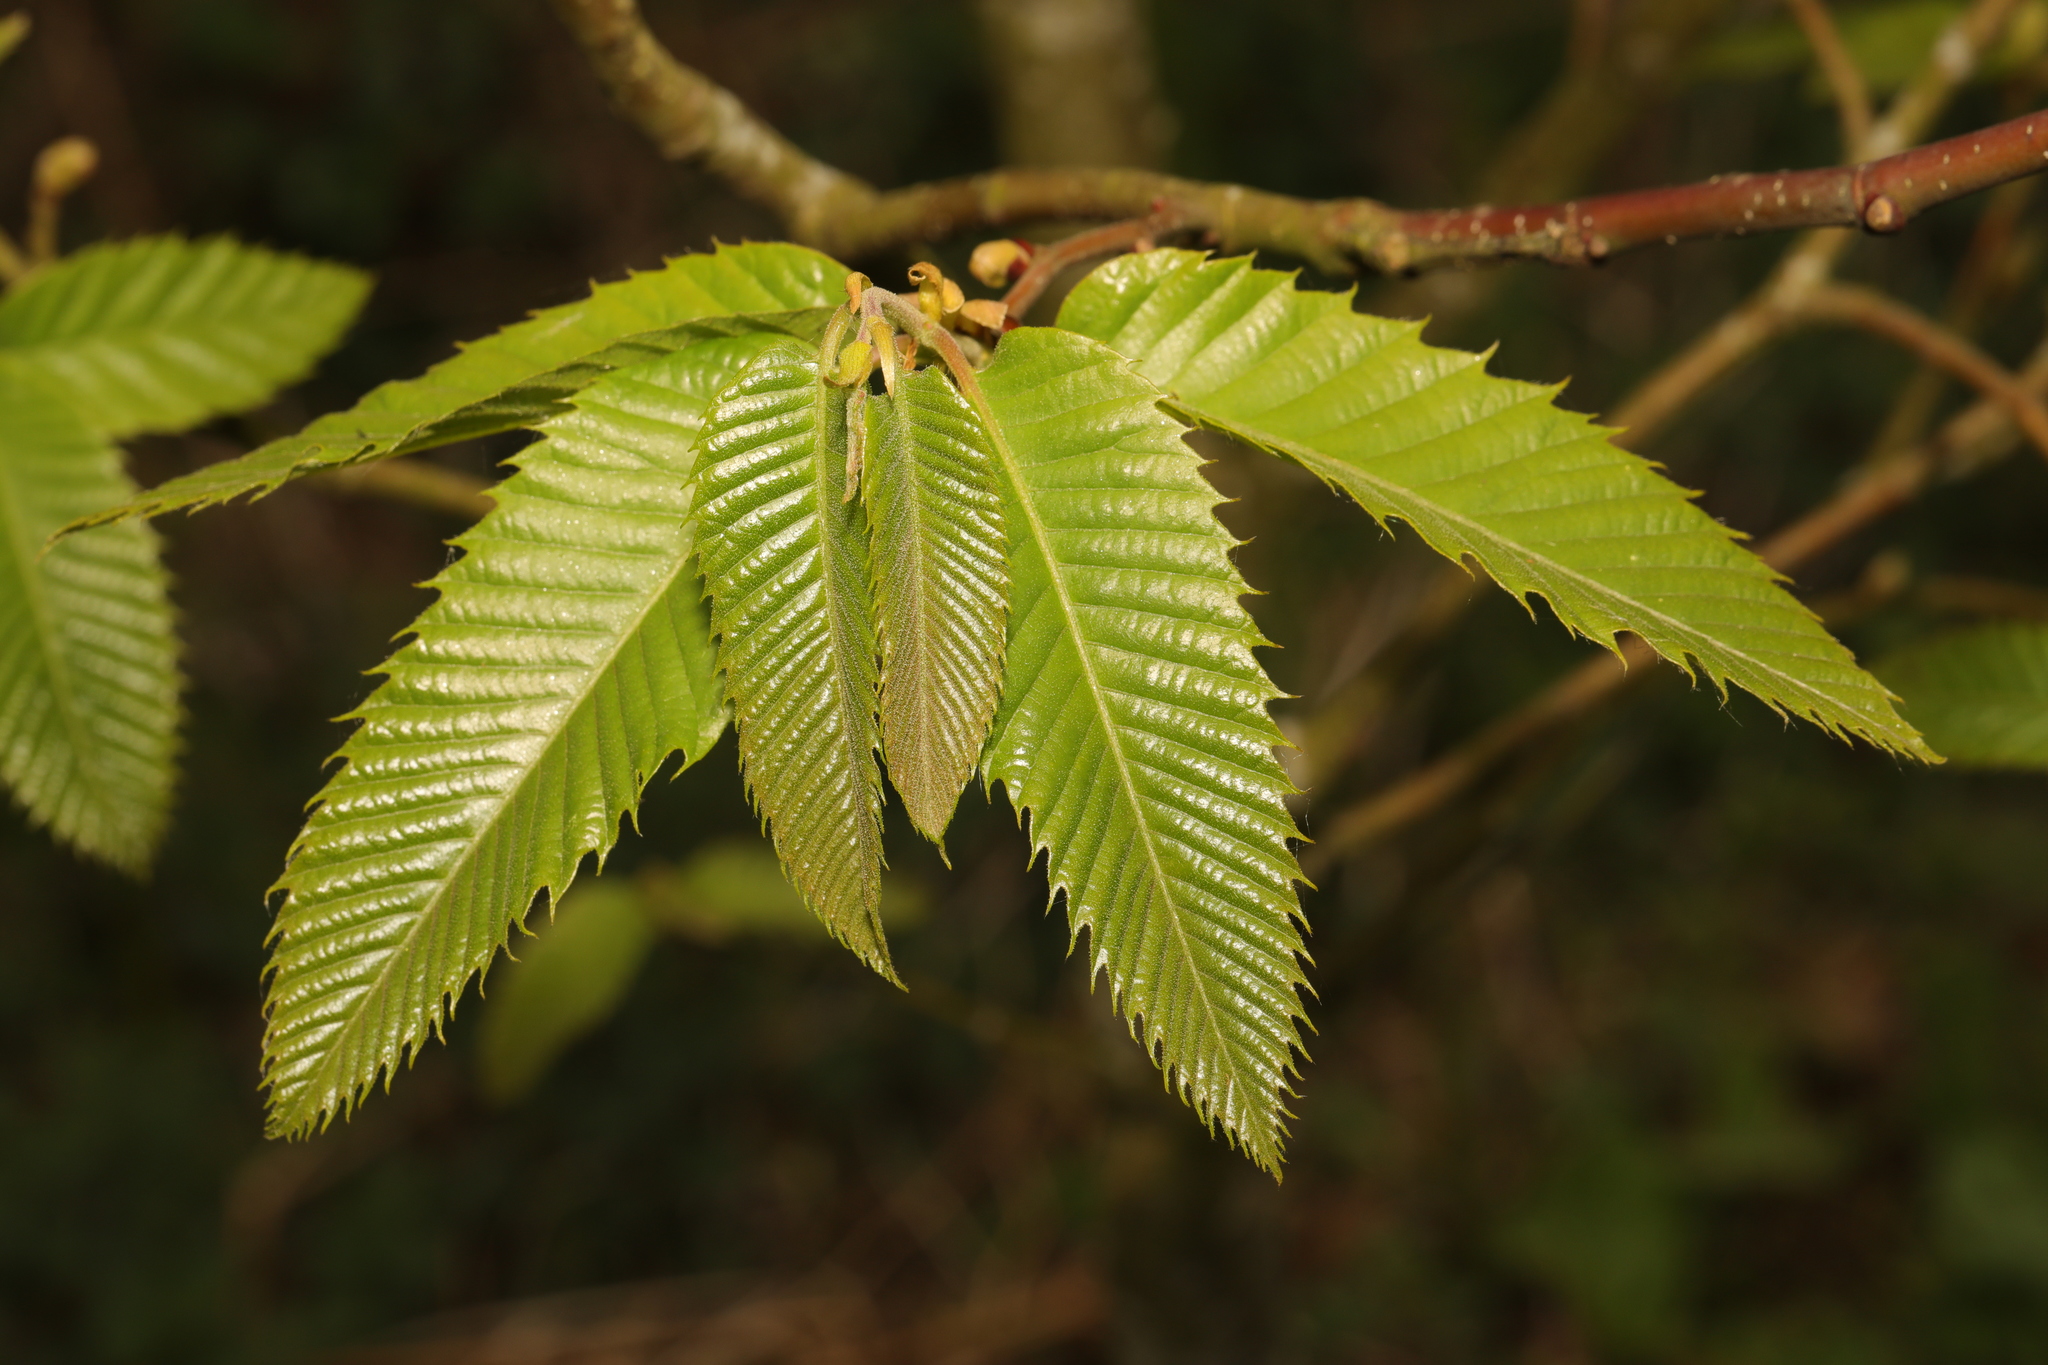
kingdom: Plantae
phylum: Tracheophyta
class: Magnoliopsida
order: Fagales
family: Fagaceae
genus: Castanea
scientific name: Castanea sativa
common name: Sweet chestnut
